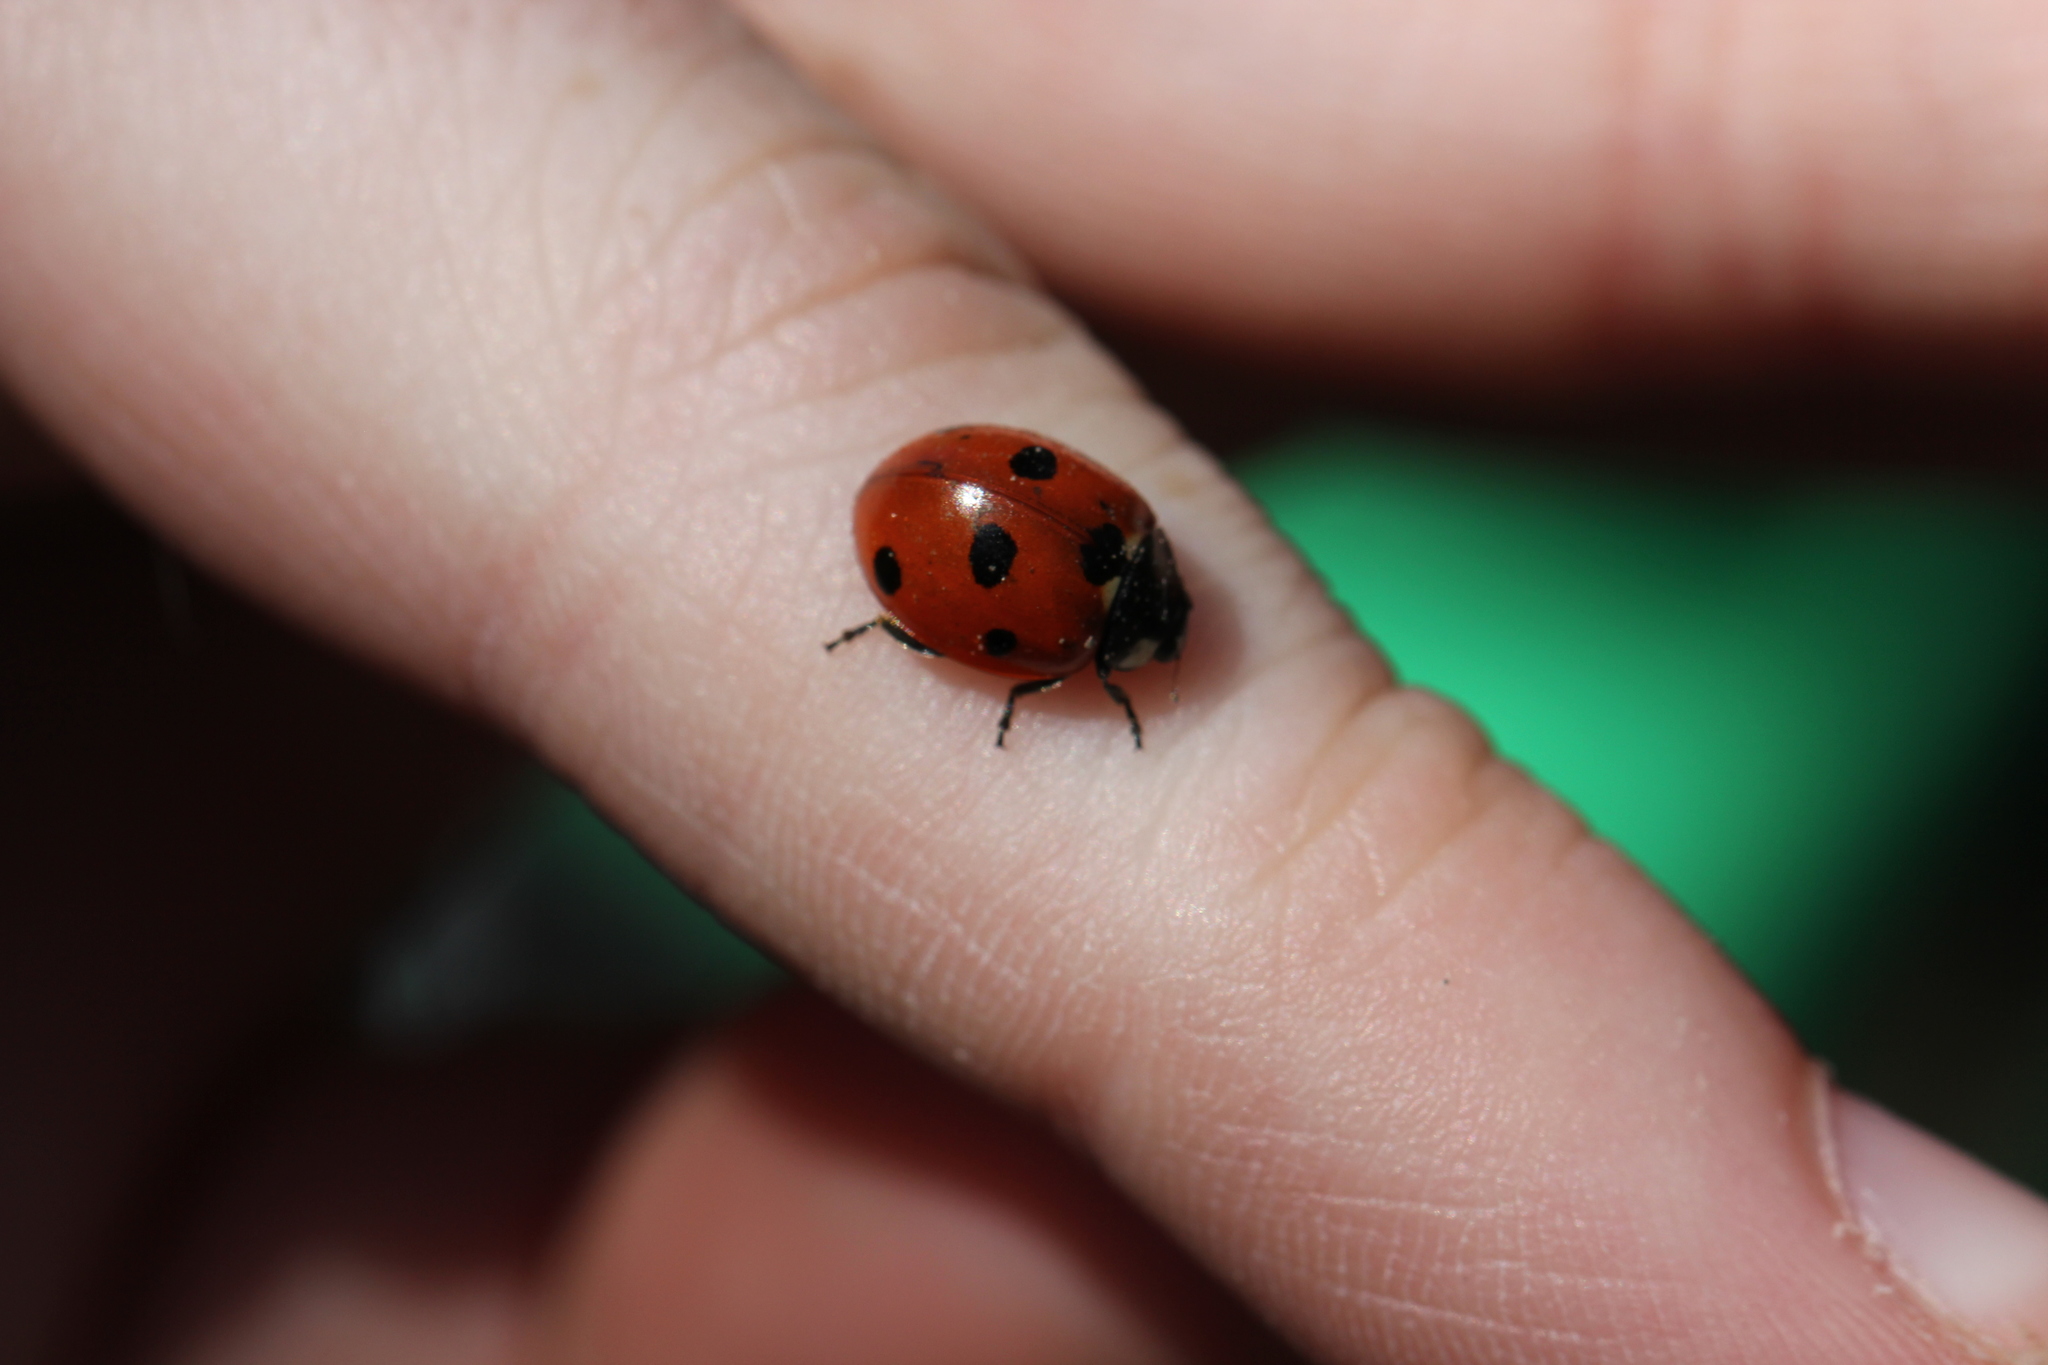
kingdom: Animalia
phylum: Arthropoda
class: Insecta
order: Coleoptera
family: Coccinellidae
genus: Coccinella
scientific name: Coccinella septempunctata
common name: Sevenspotted lady beetle
